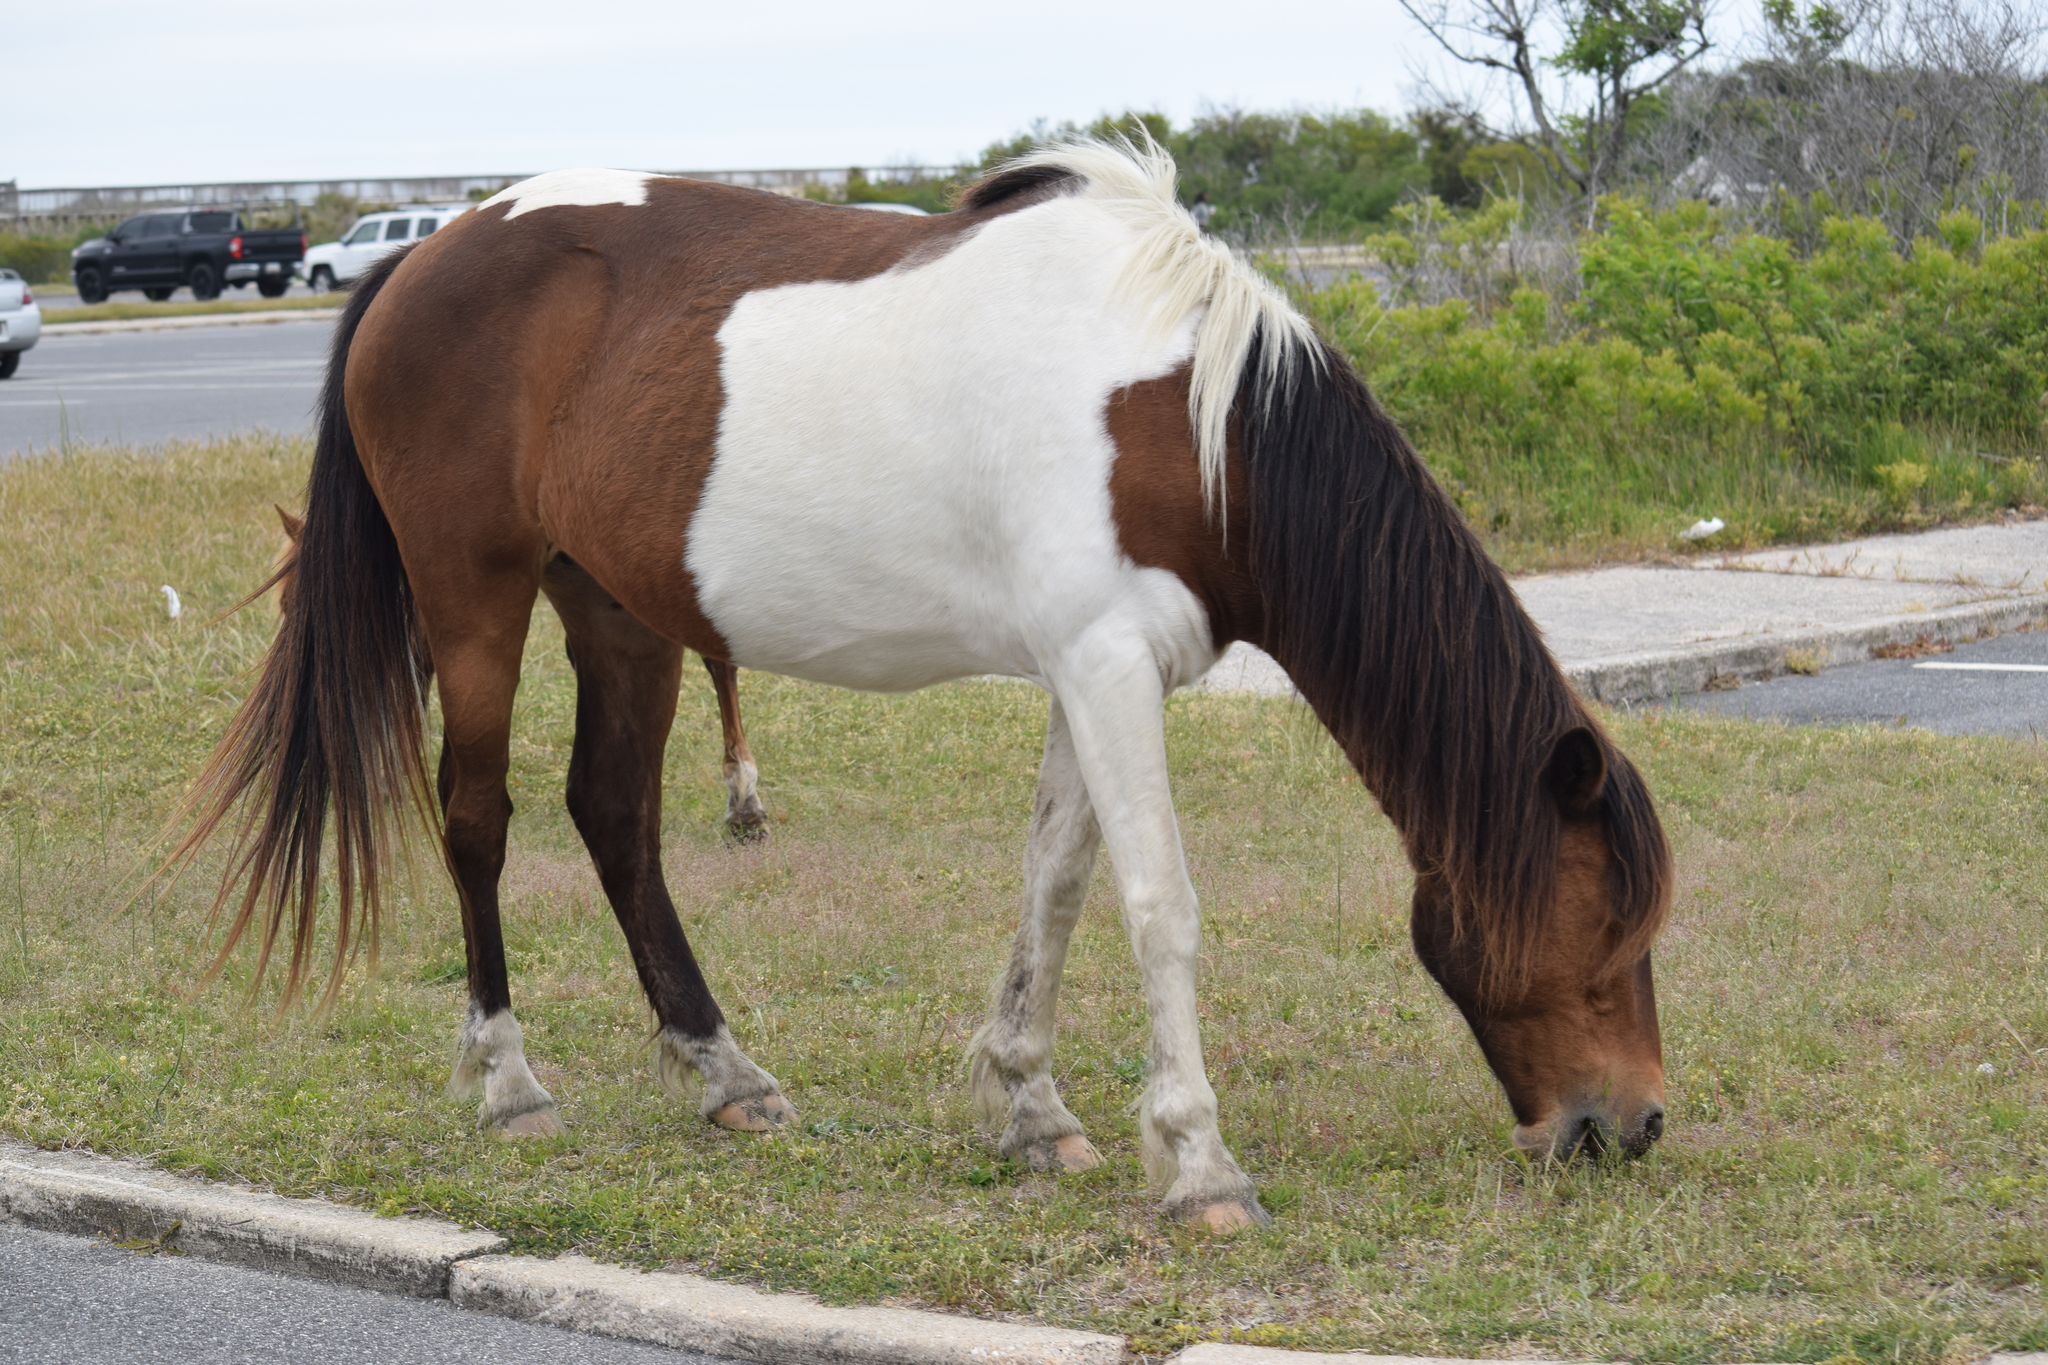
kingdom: Animalia
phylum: Chordata
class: Mammalia
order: Perissodactyla
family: Equidae
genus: Equus
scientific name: Equus caballus
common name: Horse
